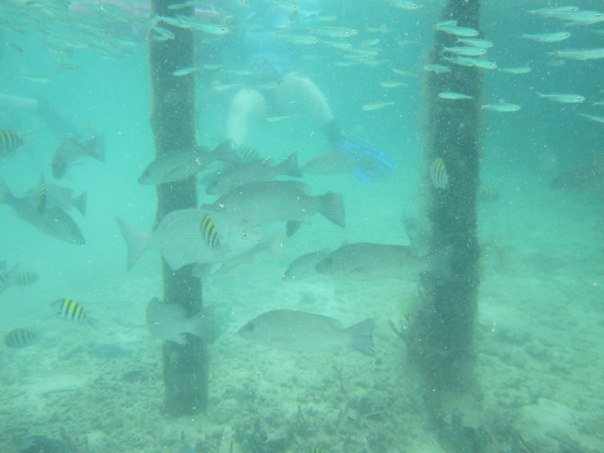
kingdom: Animalia
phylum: Chordata
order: Perciformes
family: Pomacentridae
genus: Abudefduf
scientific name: Abudefduf saxatilis
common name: Sergeant major
